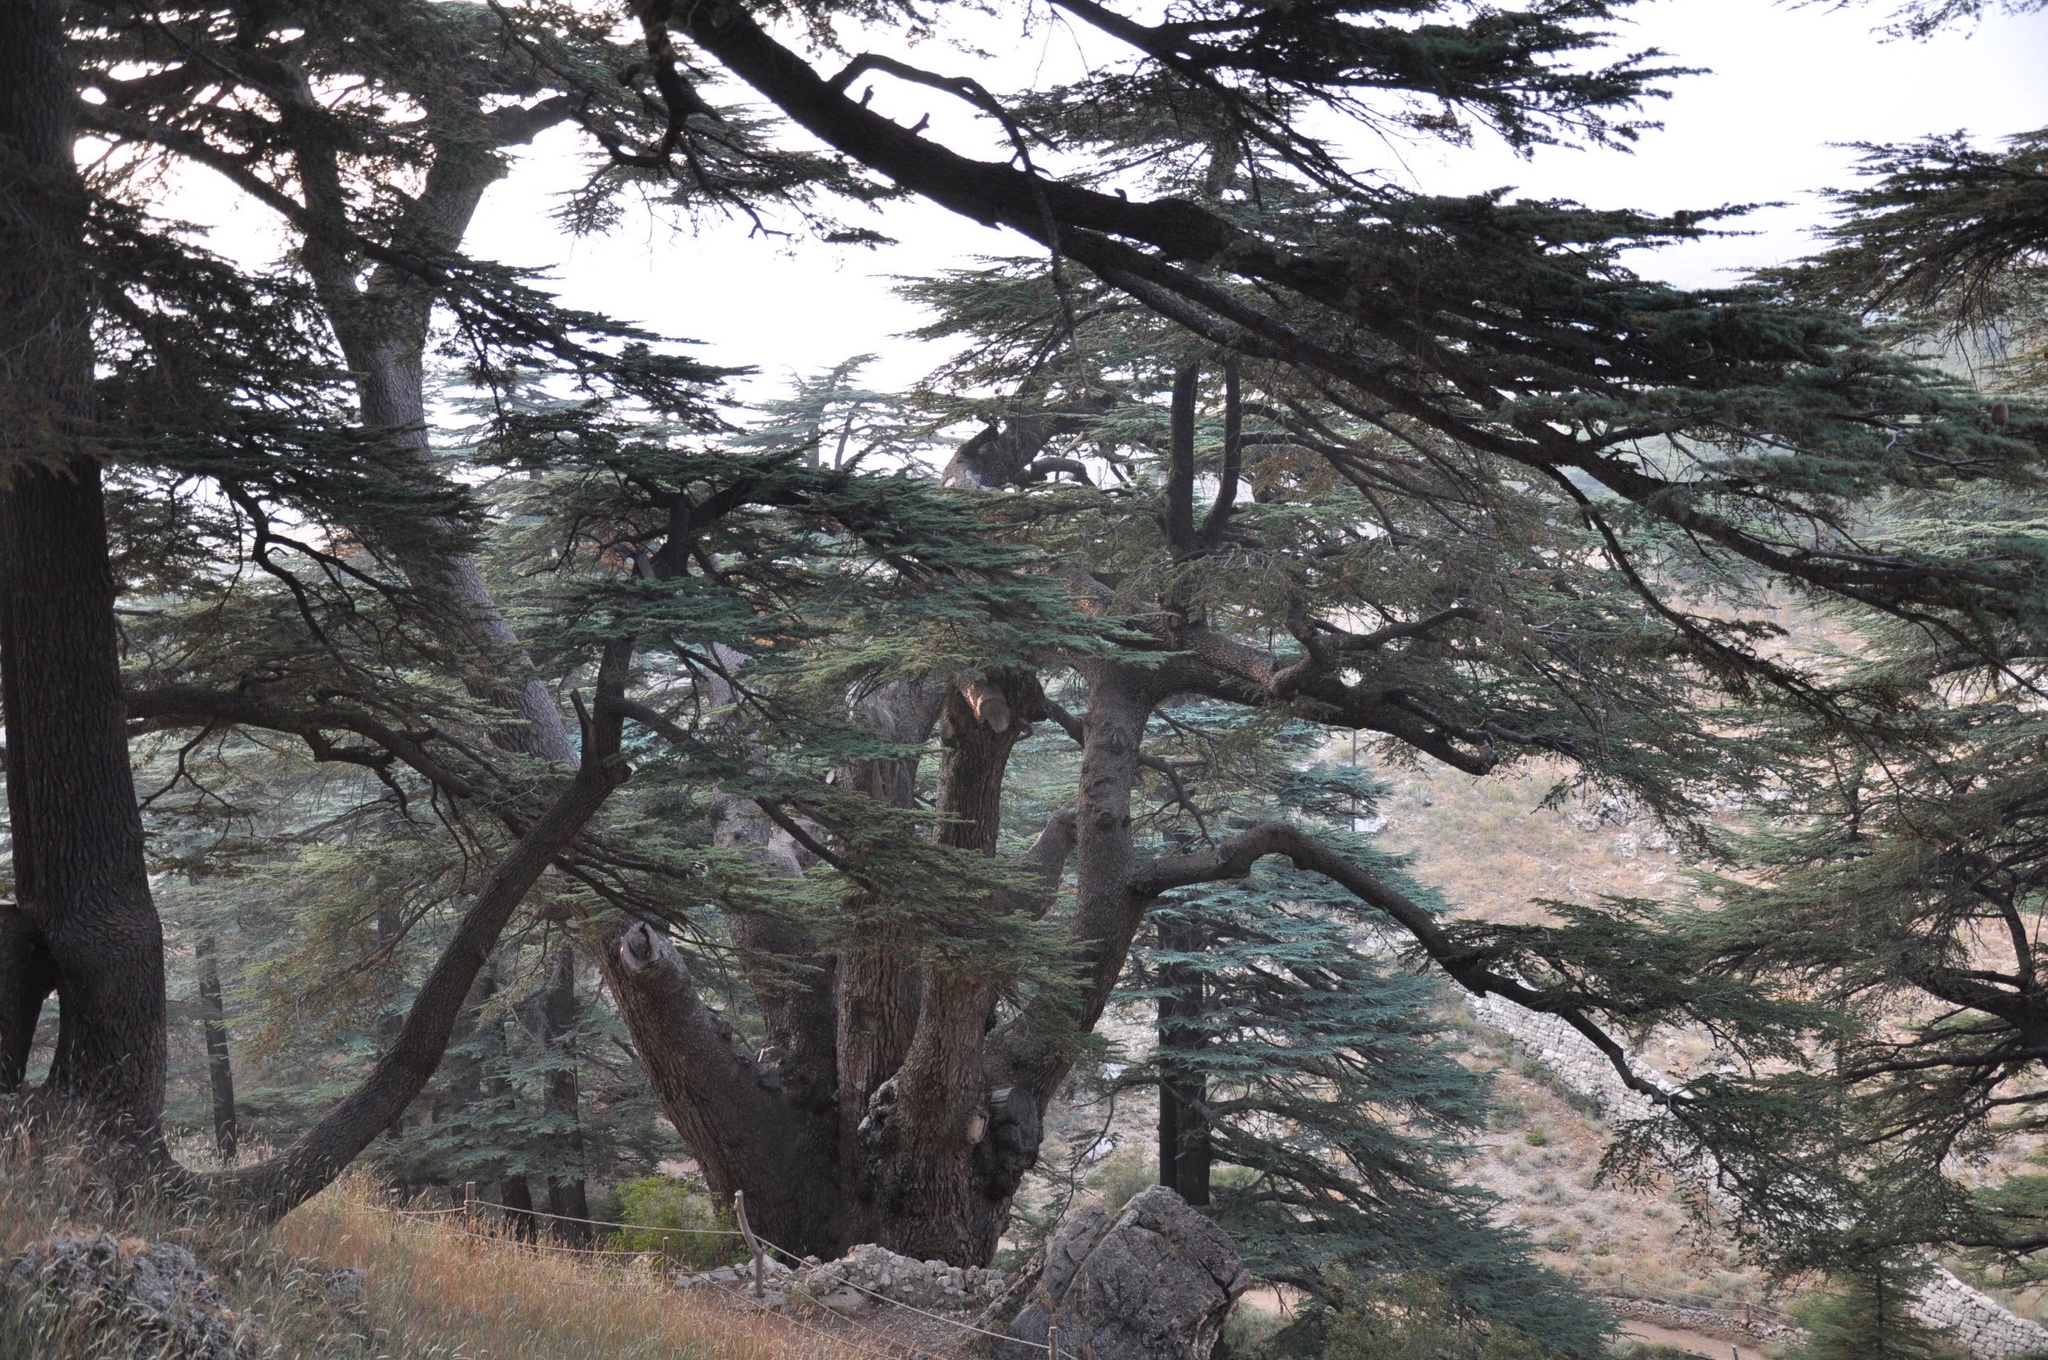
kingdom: Plantae
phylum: Tracheophyta
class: Pinopsida
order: Pinales
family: Pinaceae
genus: Cedrus
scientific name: Cedrus libani
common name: Cedar-of-lebanon
